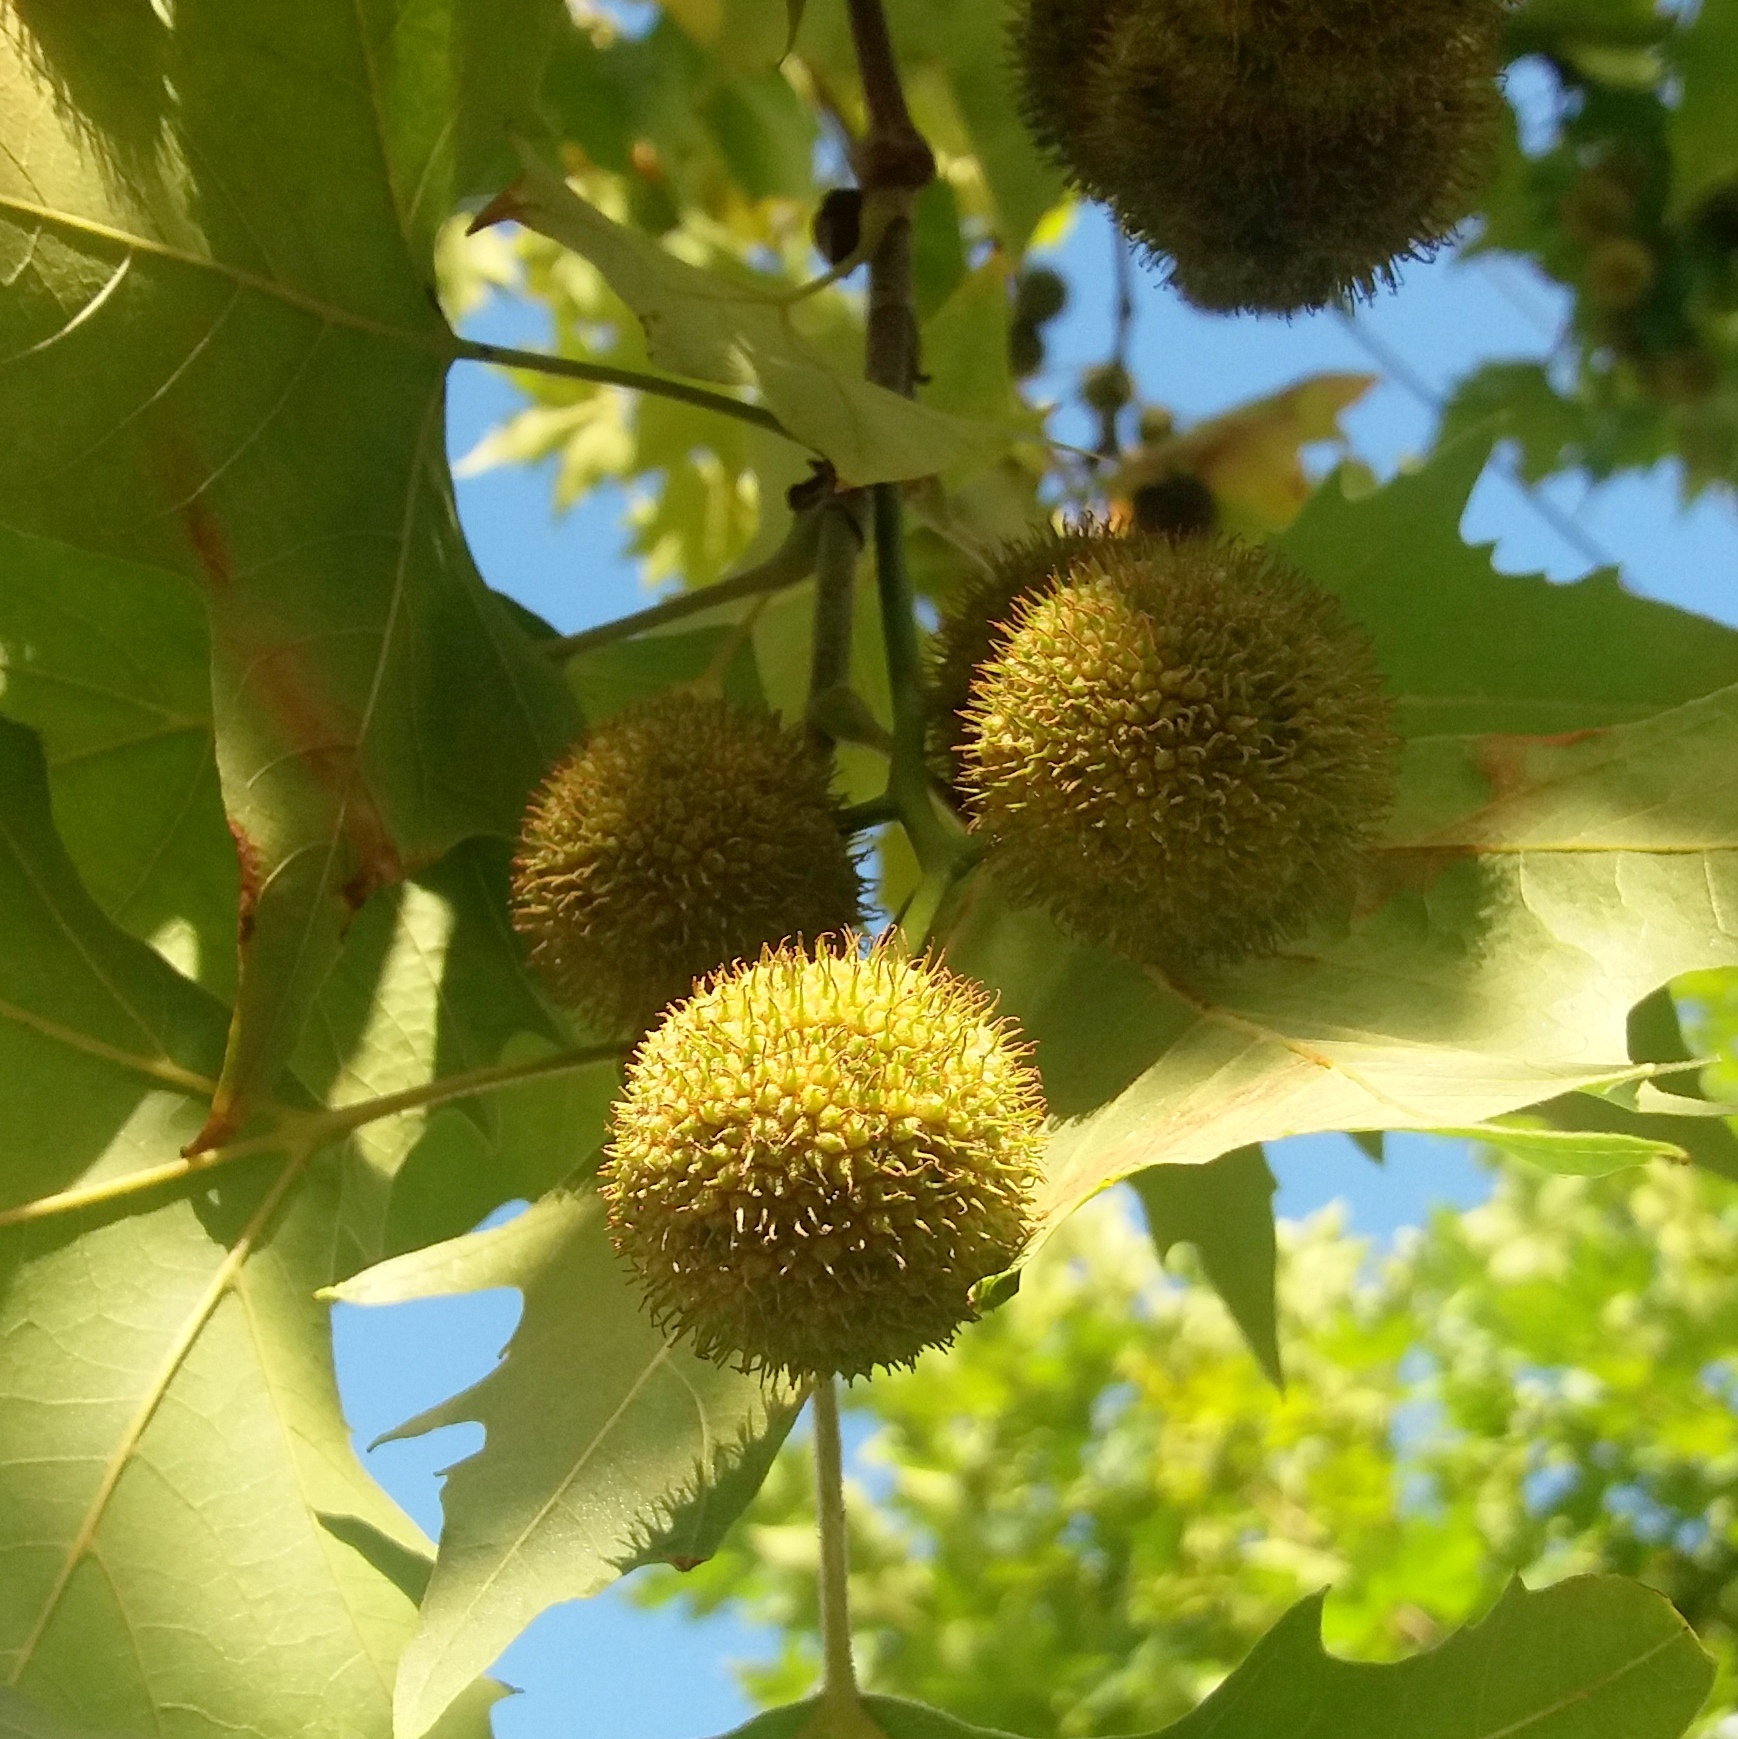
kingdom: Plantae
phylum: Tracheophyta
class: Magnoliopsida
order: Proteales
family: Platanaceae
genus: Platanus
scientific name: Platanus hispanica
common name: London plane
